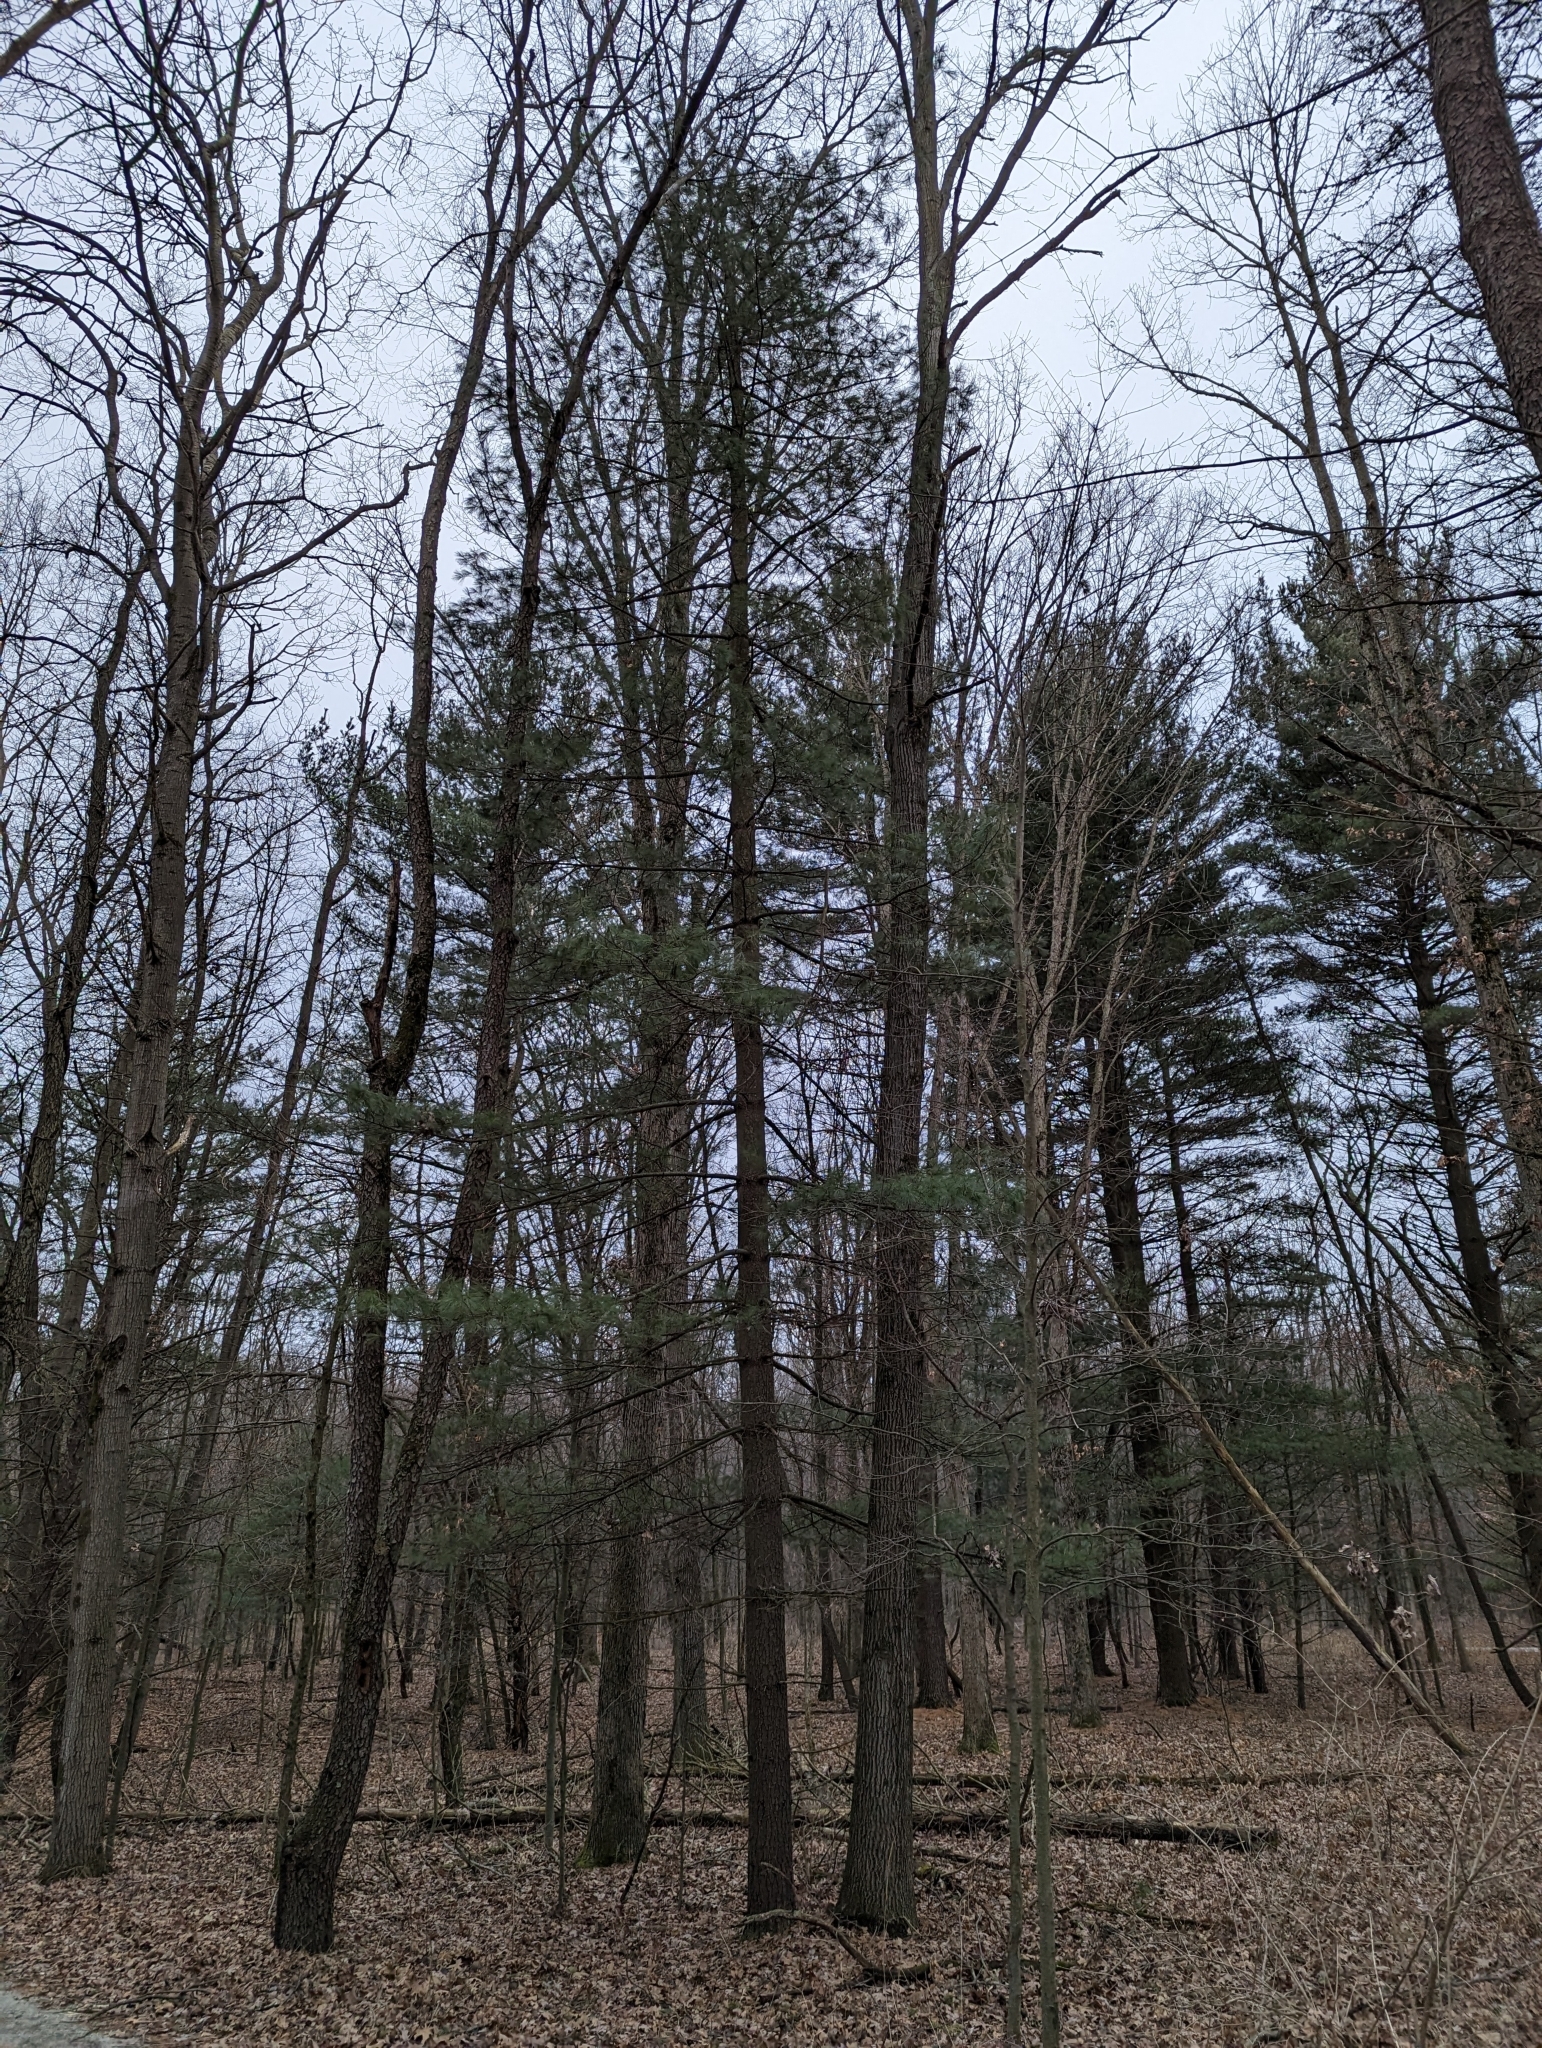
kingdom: Plantae
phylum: Tracheophyta
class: Pinopsida
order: Pinales
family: Pinaceae
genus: Pinus
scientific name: Pinus strobus
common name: Weymouth pine
